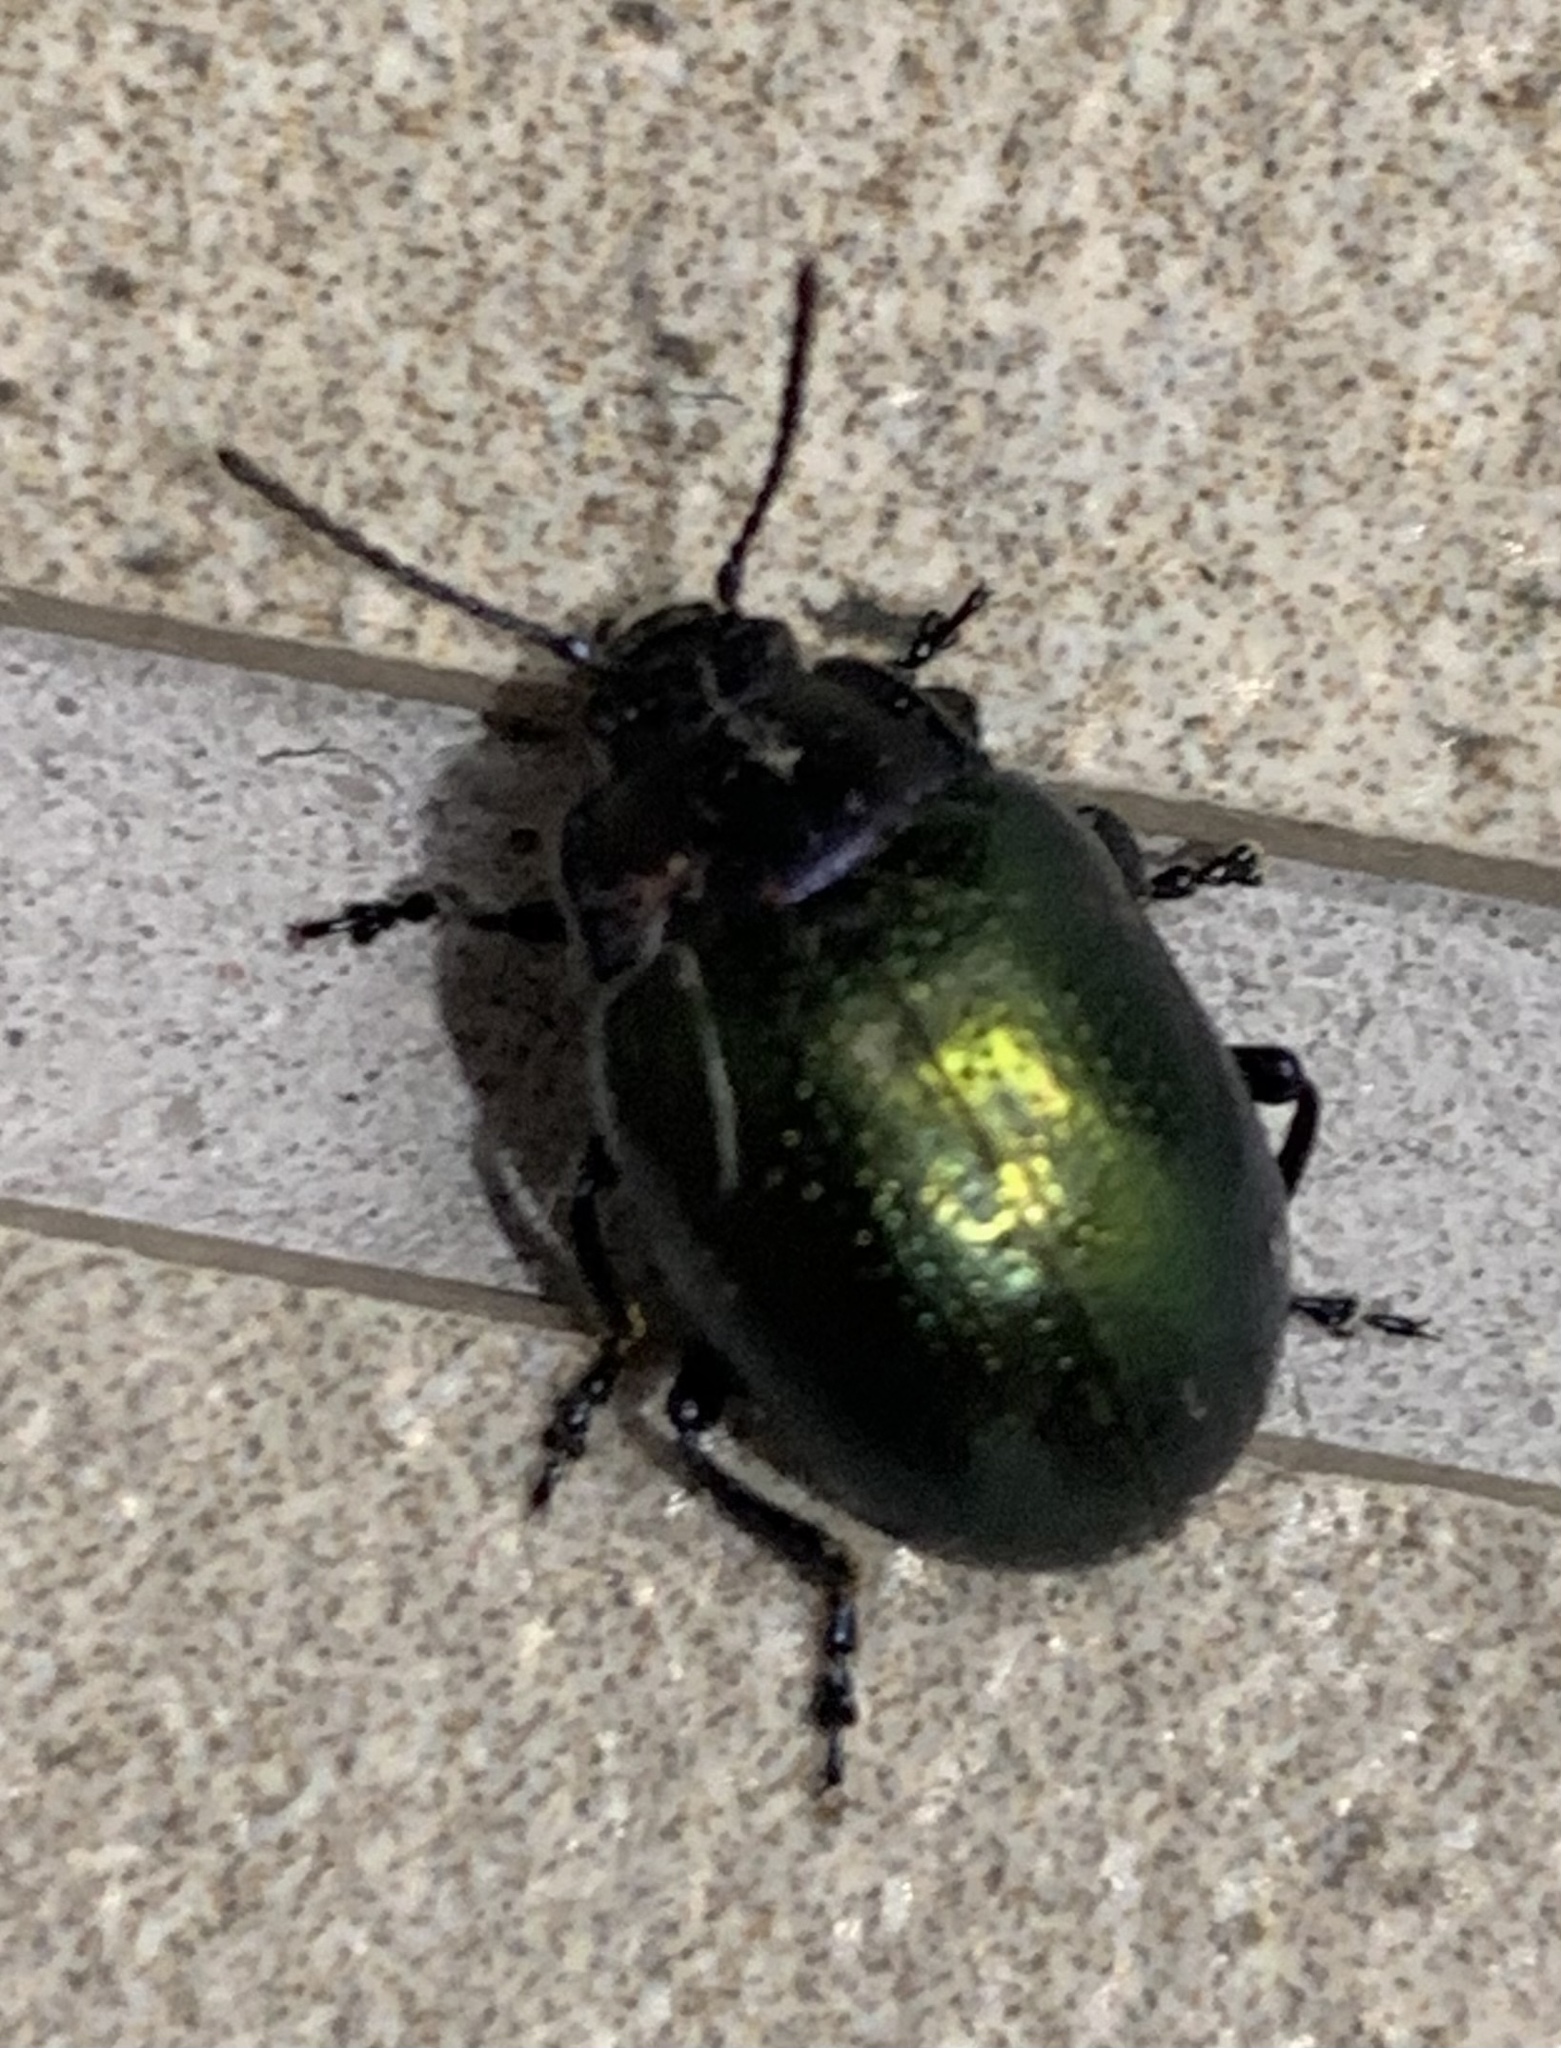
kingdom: Animalia
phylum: Arthropoda
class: Insecta
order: Coleoptera
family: Chrysomelidae
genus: Chrysolina
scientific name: Chrysolina auripennis
